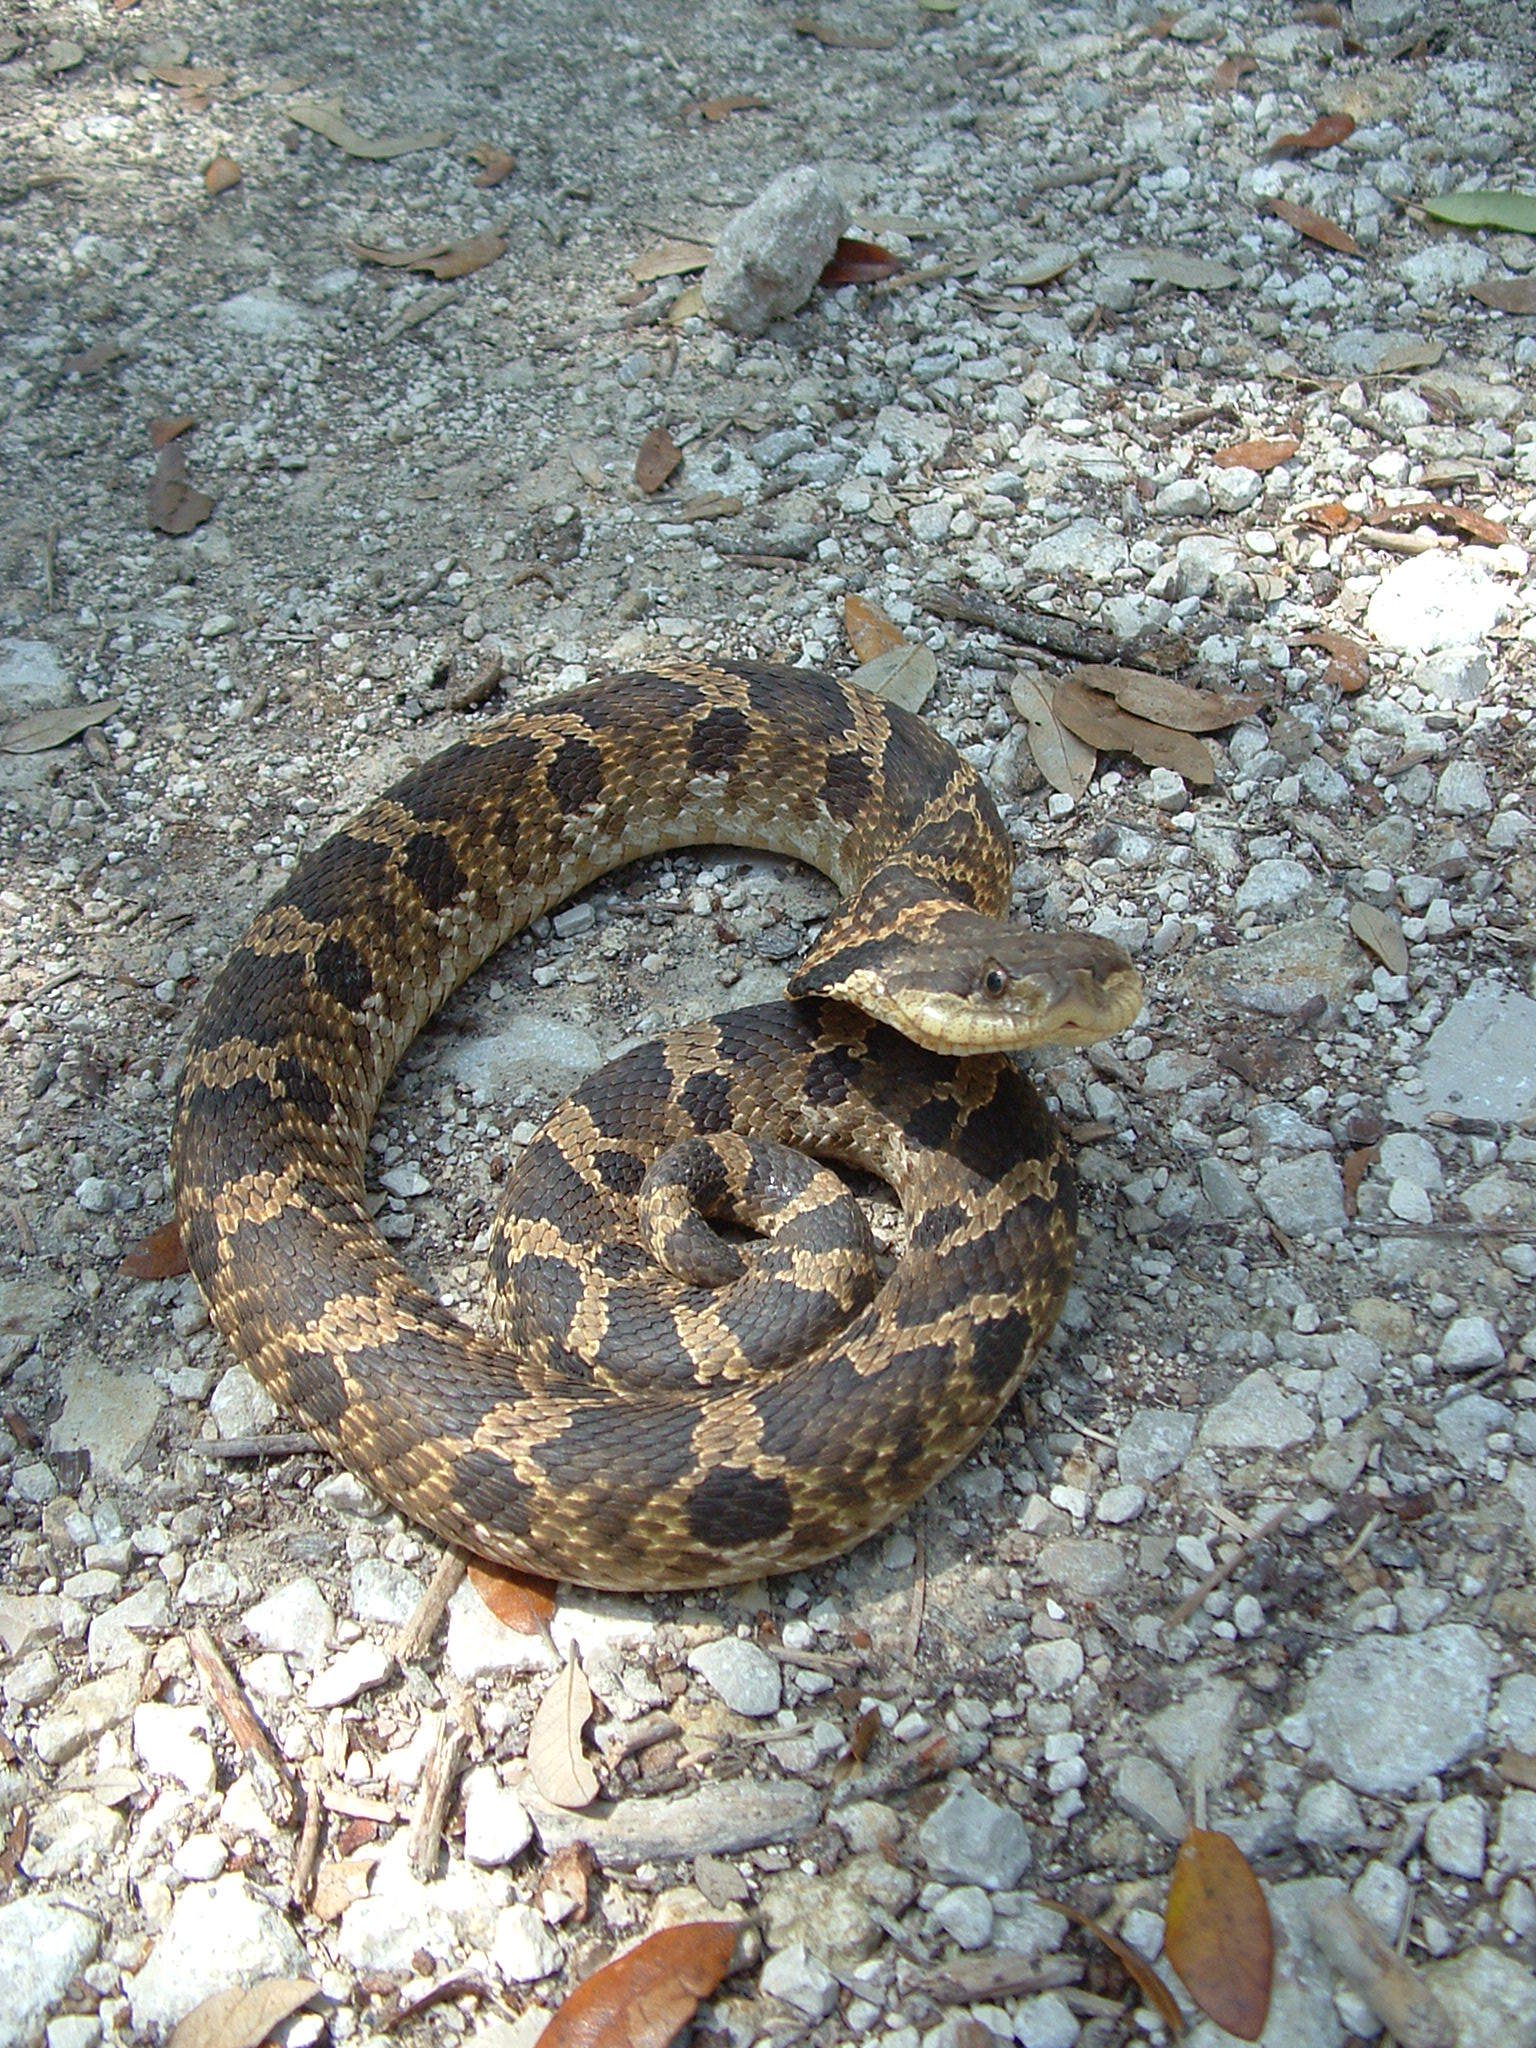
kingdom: Animalia
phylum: Chordata
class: Squamata
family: Colubridae
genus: Heterodon
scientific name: Heterodon platirhinos
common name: Eastern hognose snake
